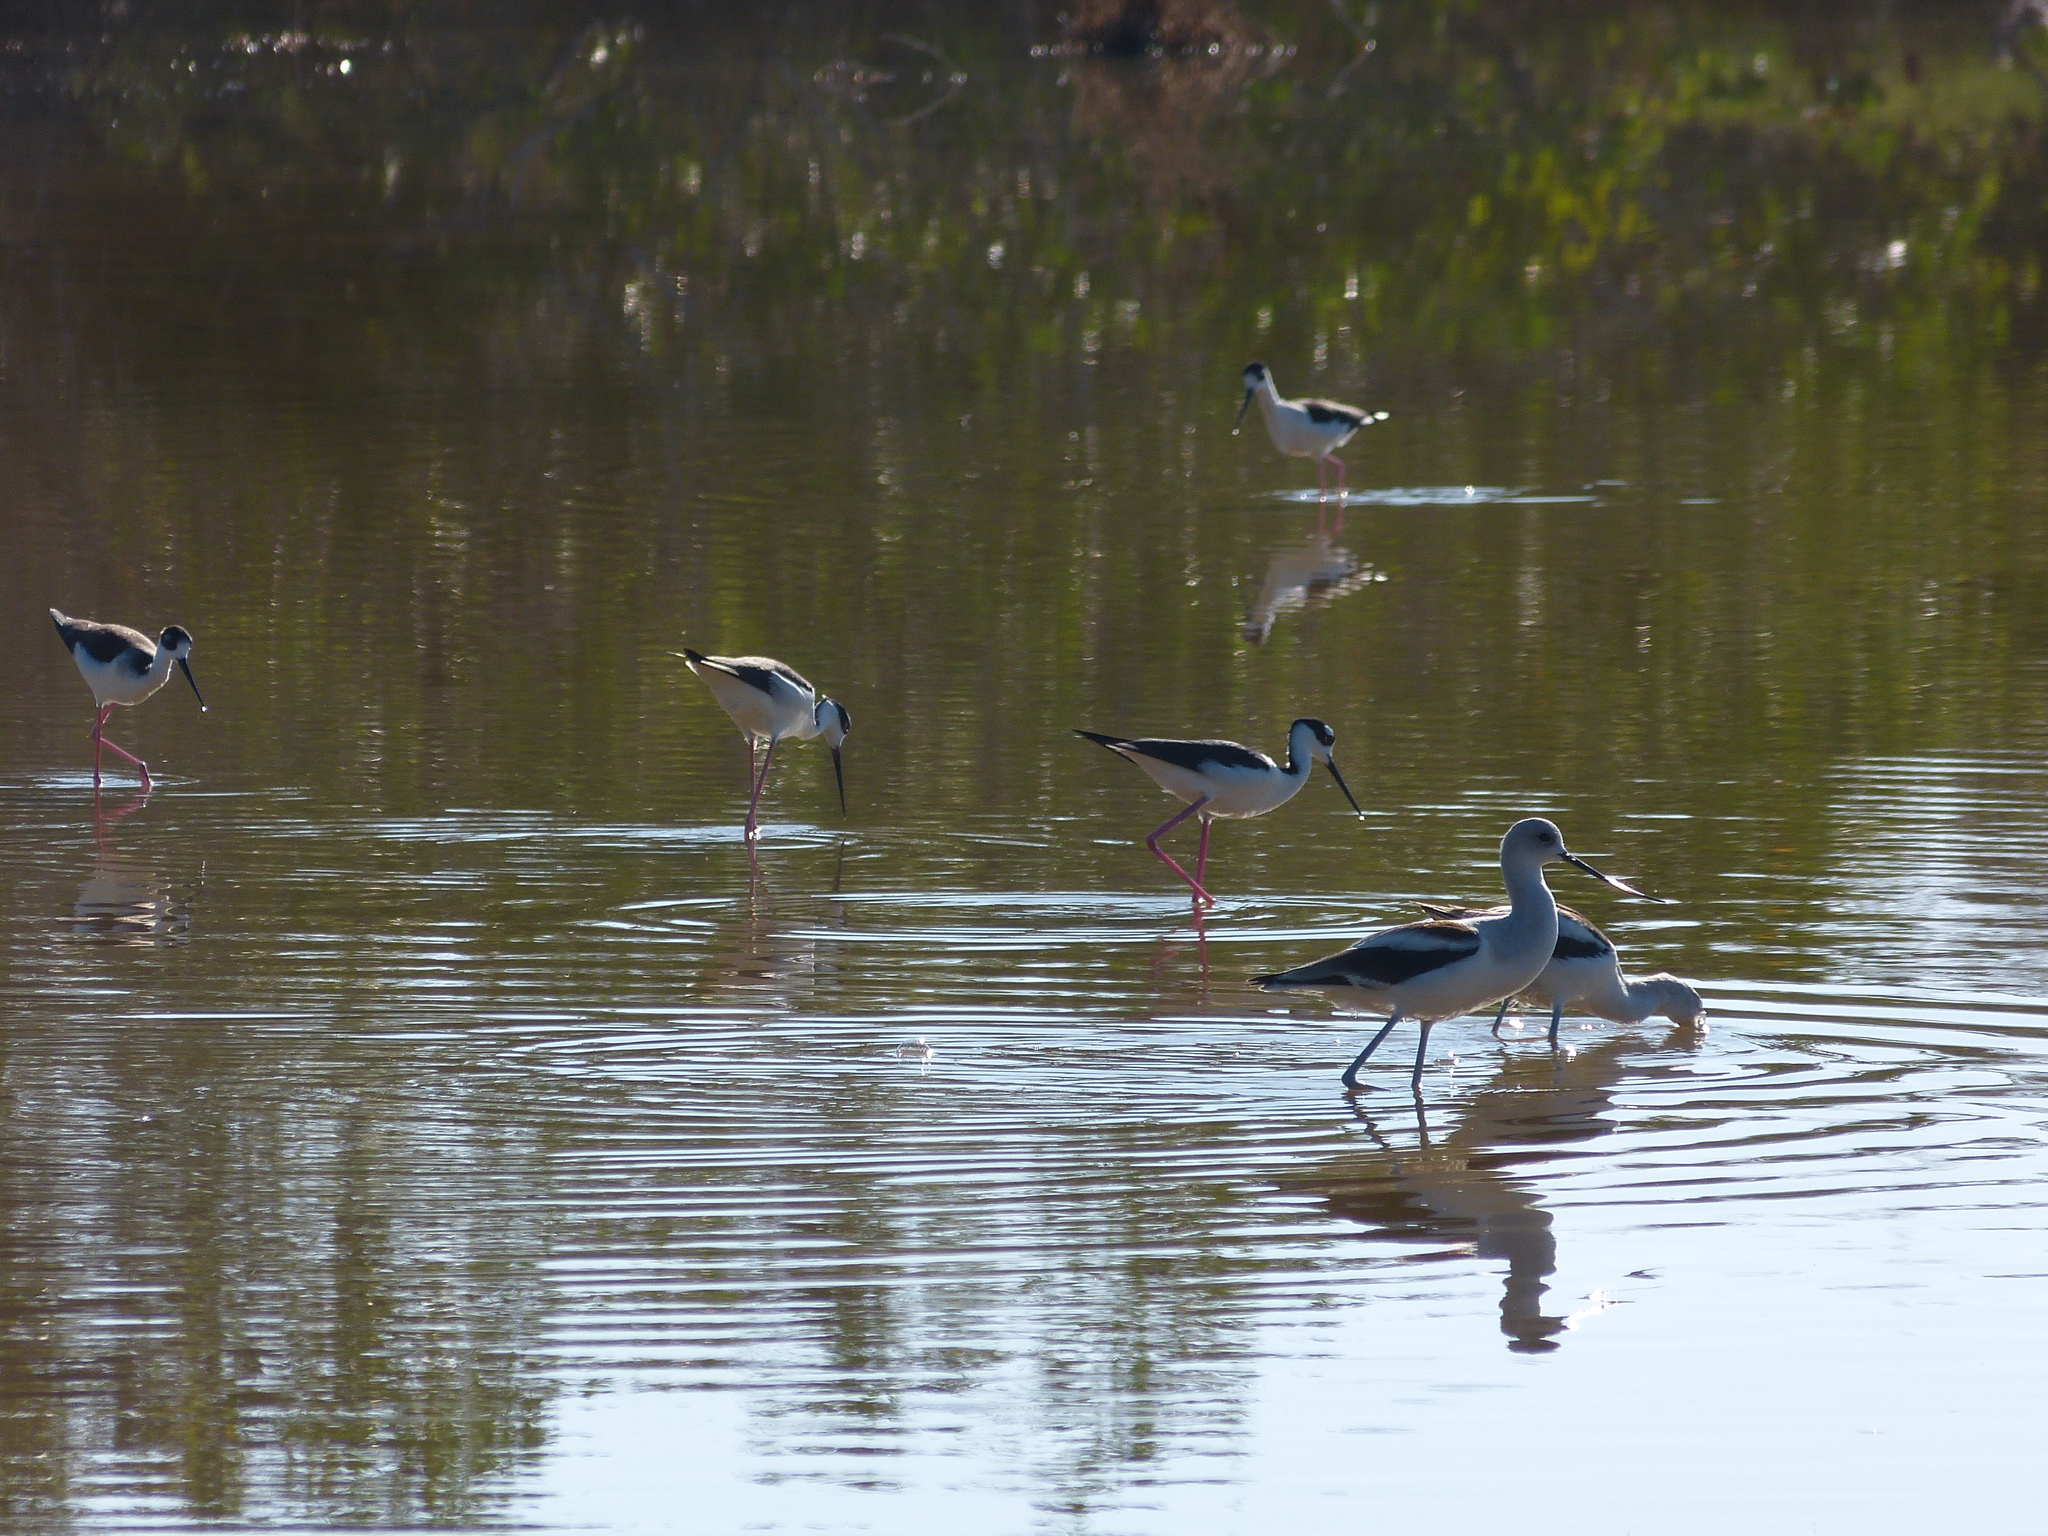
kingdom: Animalia
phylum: Chordata
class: Aves
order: Charadriiformes
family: Recurvirostridae
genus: Recurvirostra
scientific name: Recurvirostra americana
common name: American avocet
